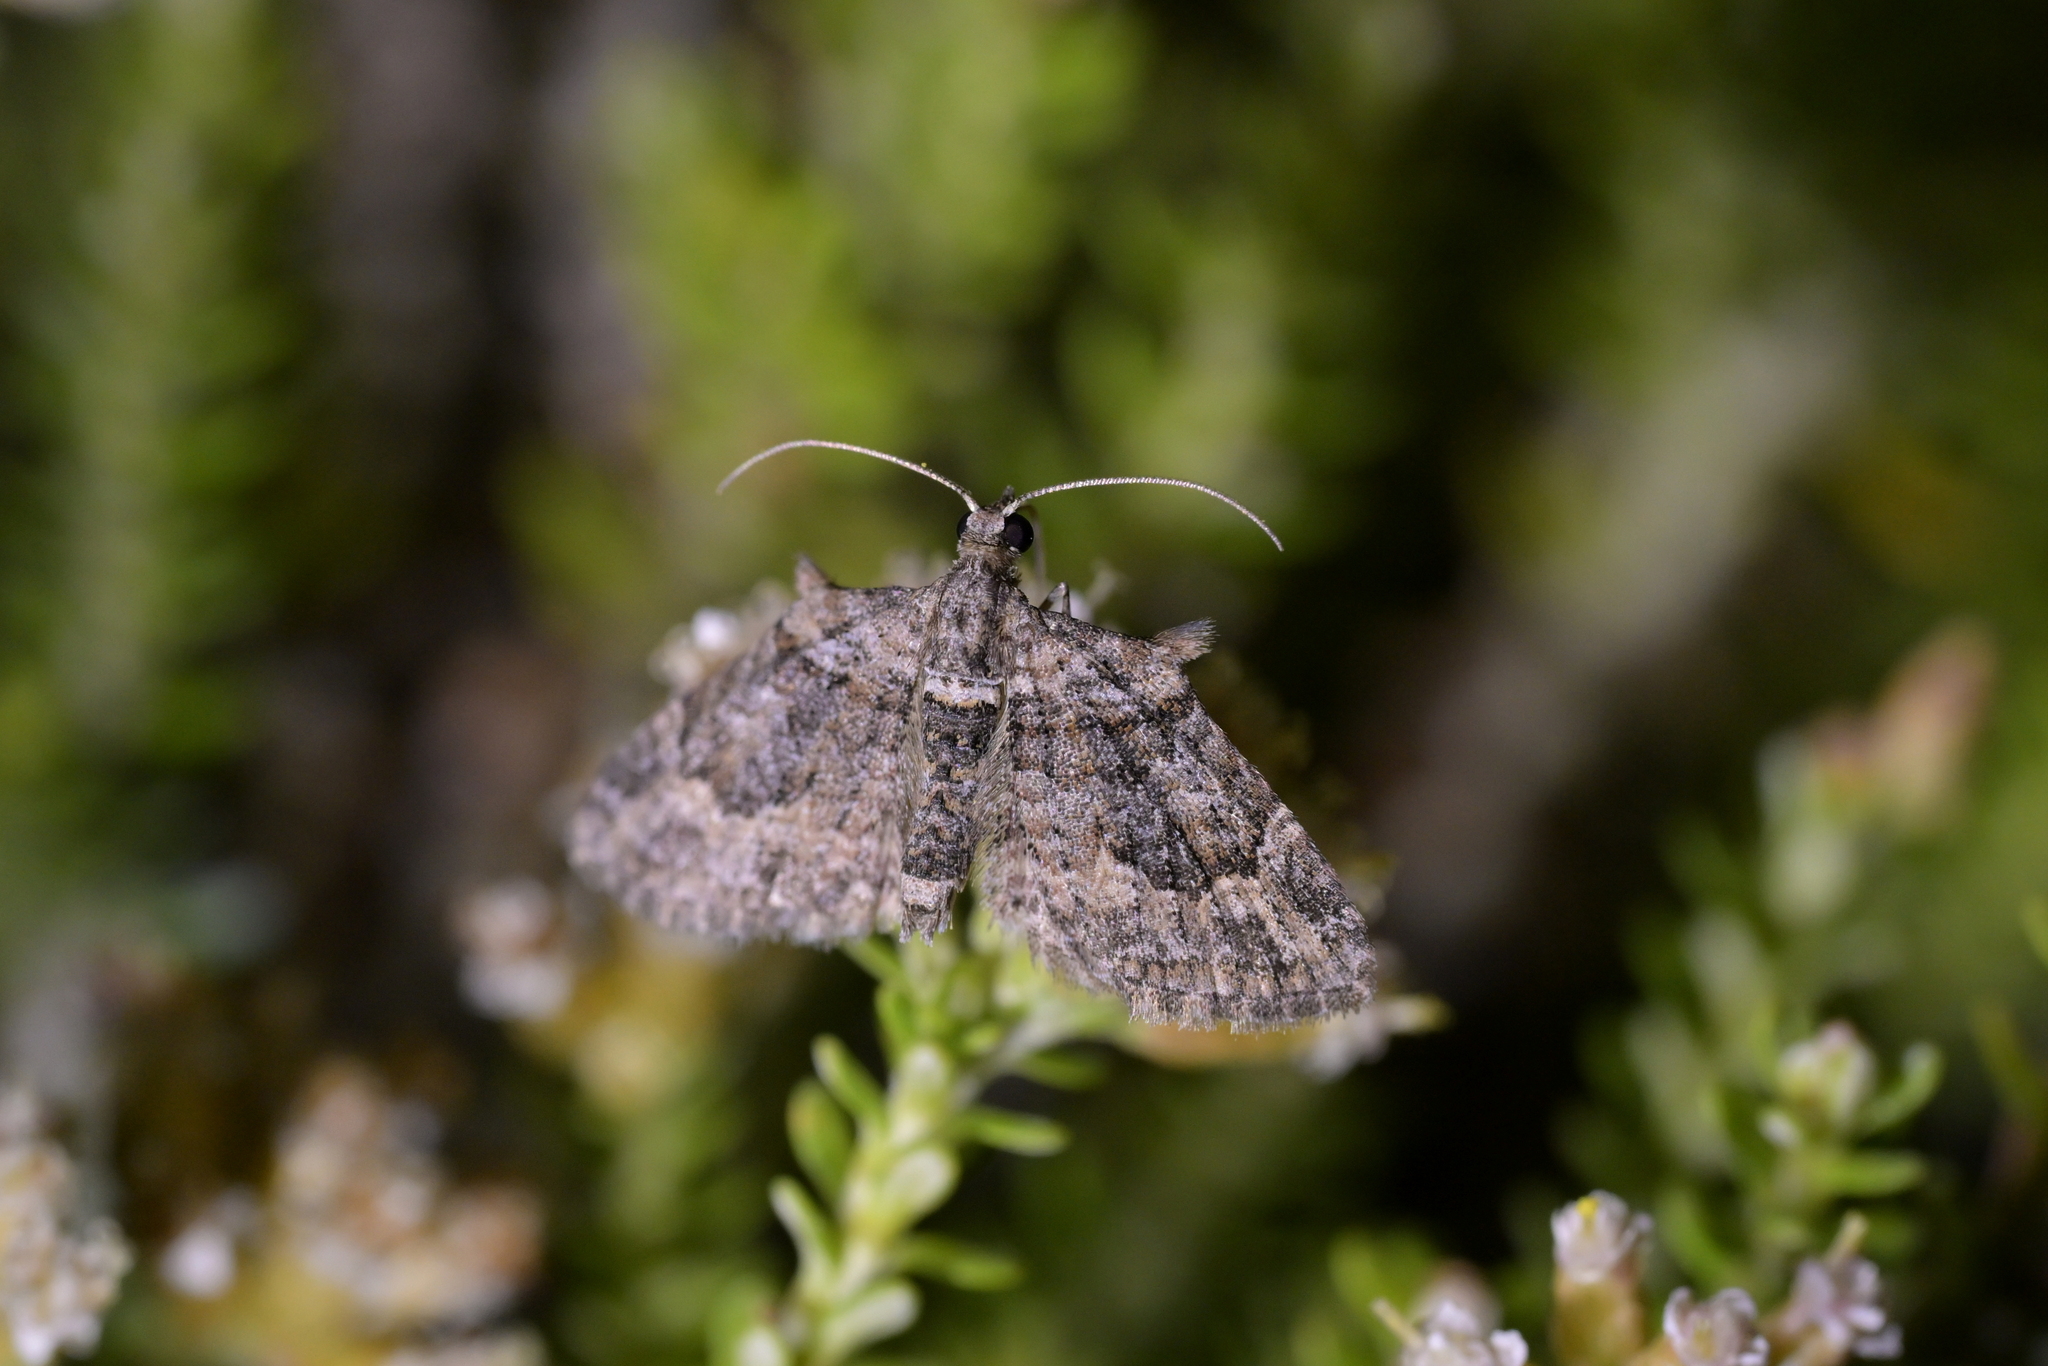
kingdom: Animalia
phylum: Arthropoda
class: Insecta
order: Lepidoptera
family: Geometridae
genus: Phrissogonus
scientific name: Phrissogonus laticostata
